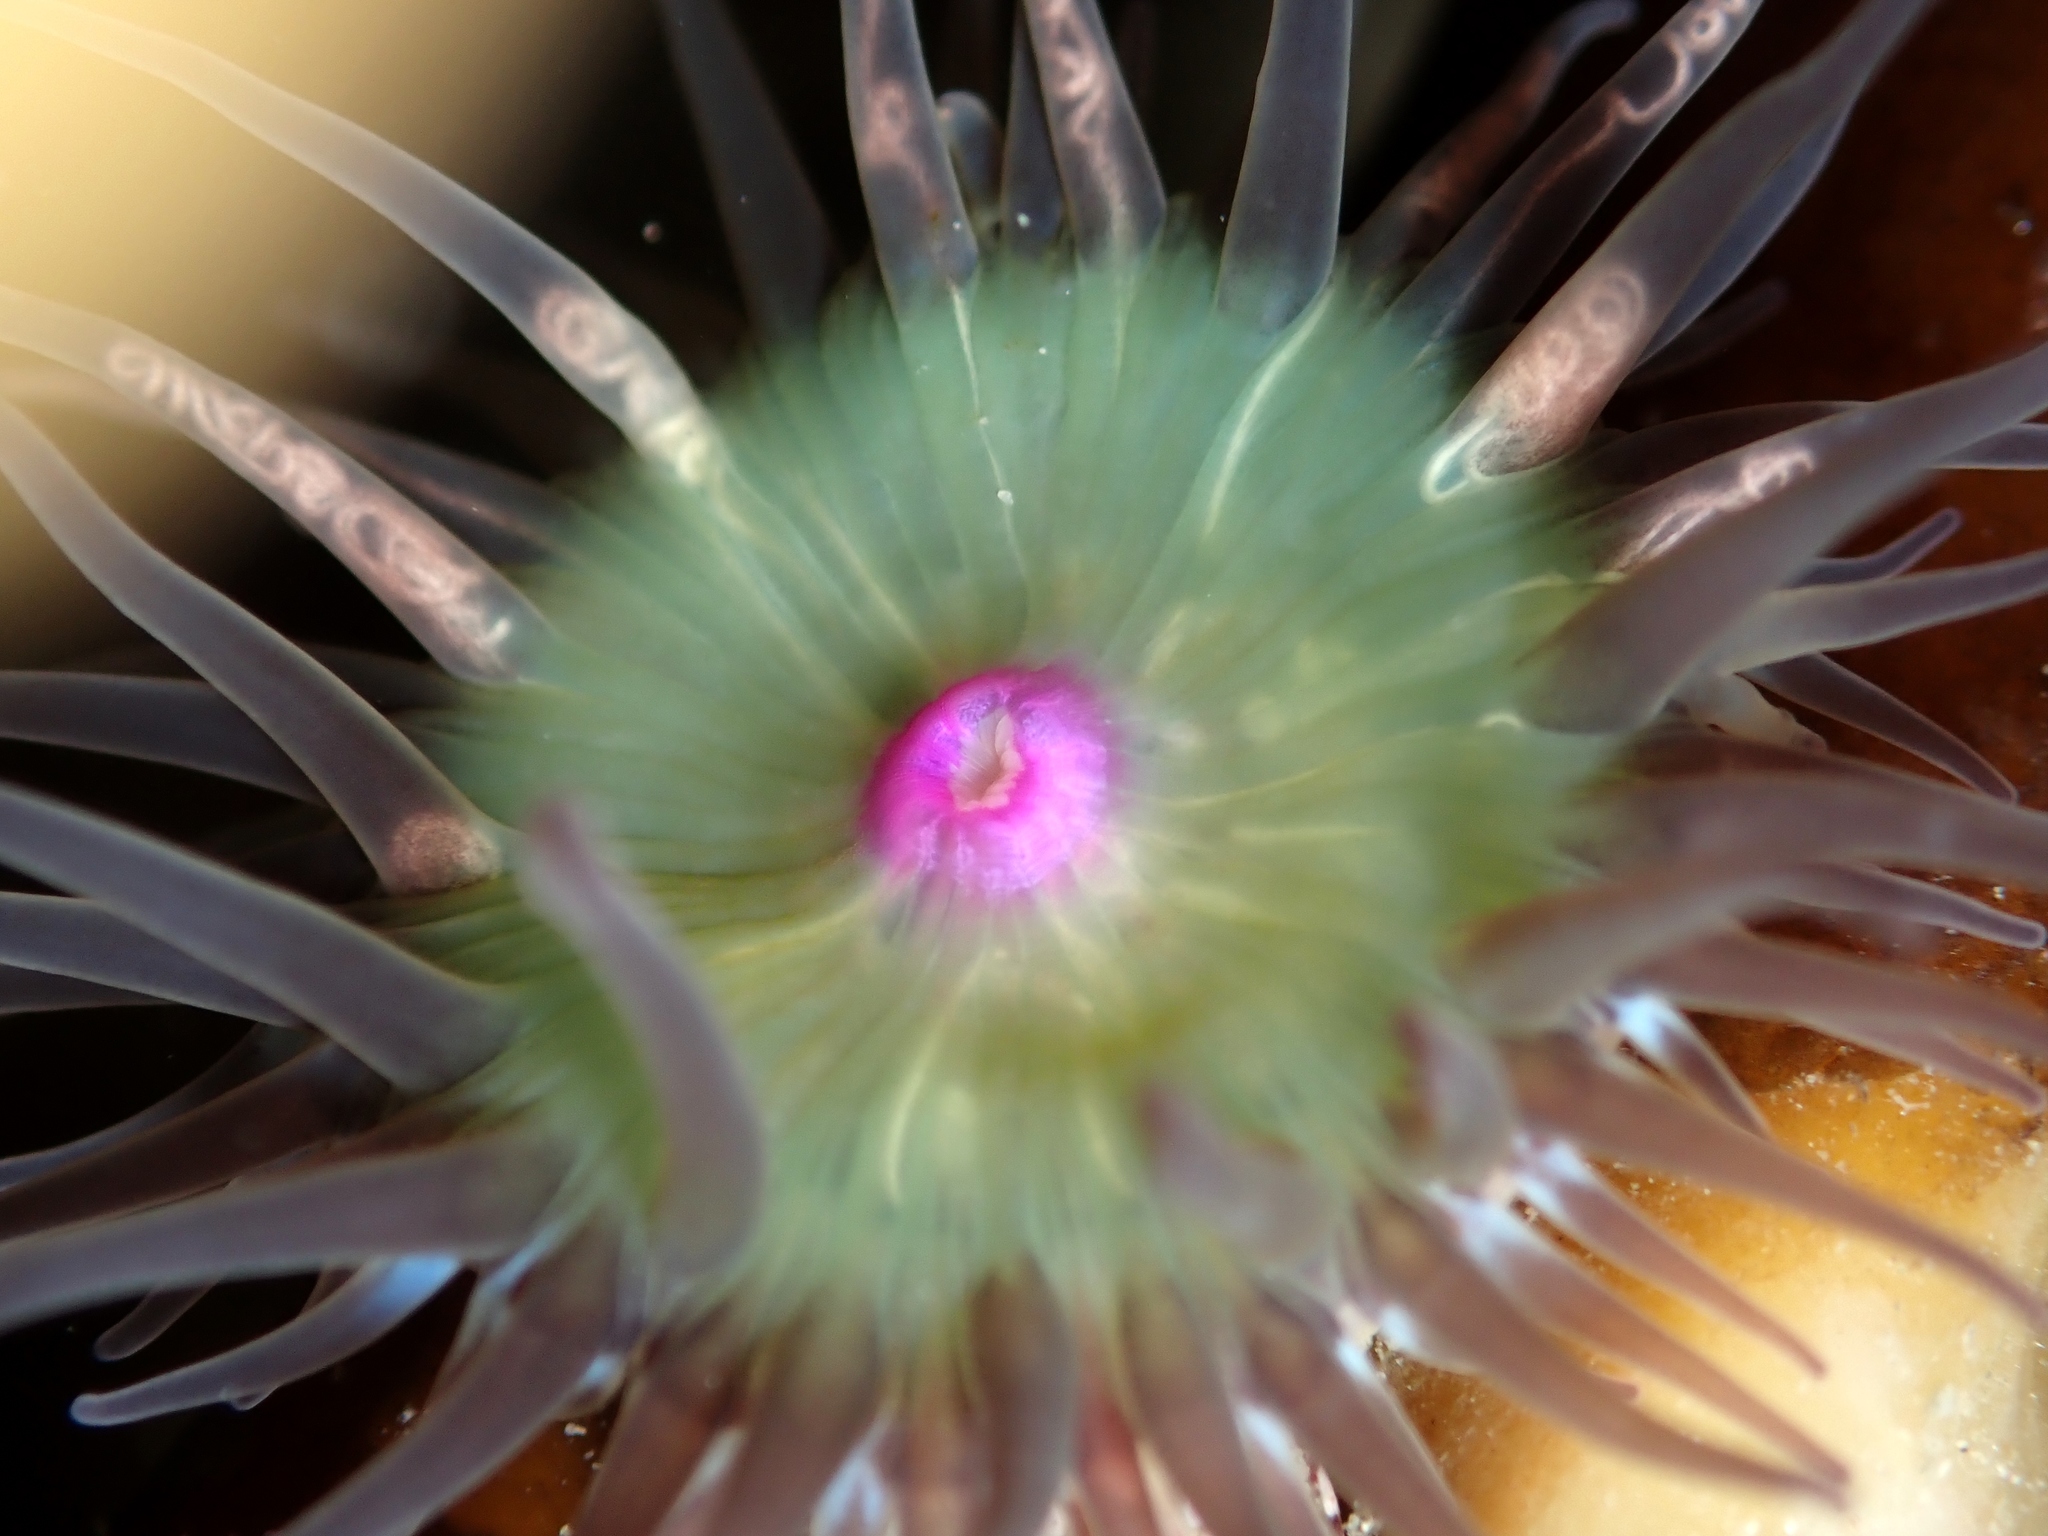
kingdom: Animalia
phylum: Cnidaria
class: Anthozoa
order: Actiniaria
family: Hormathiidae
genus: Handactis
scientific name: Handactis nutrix
